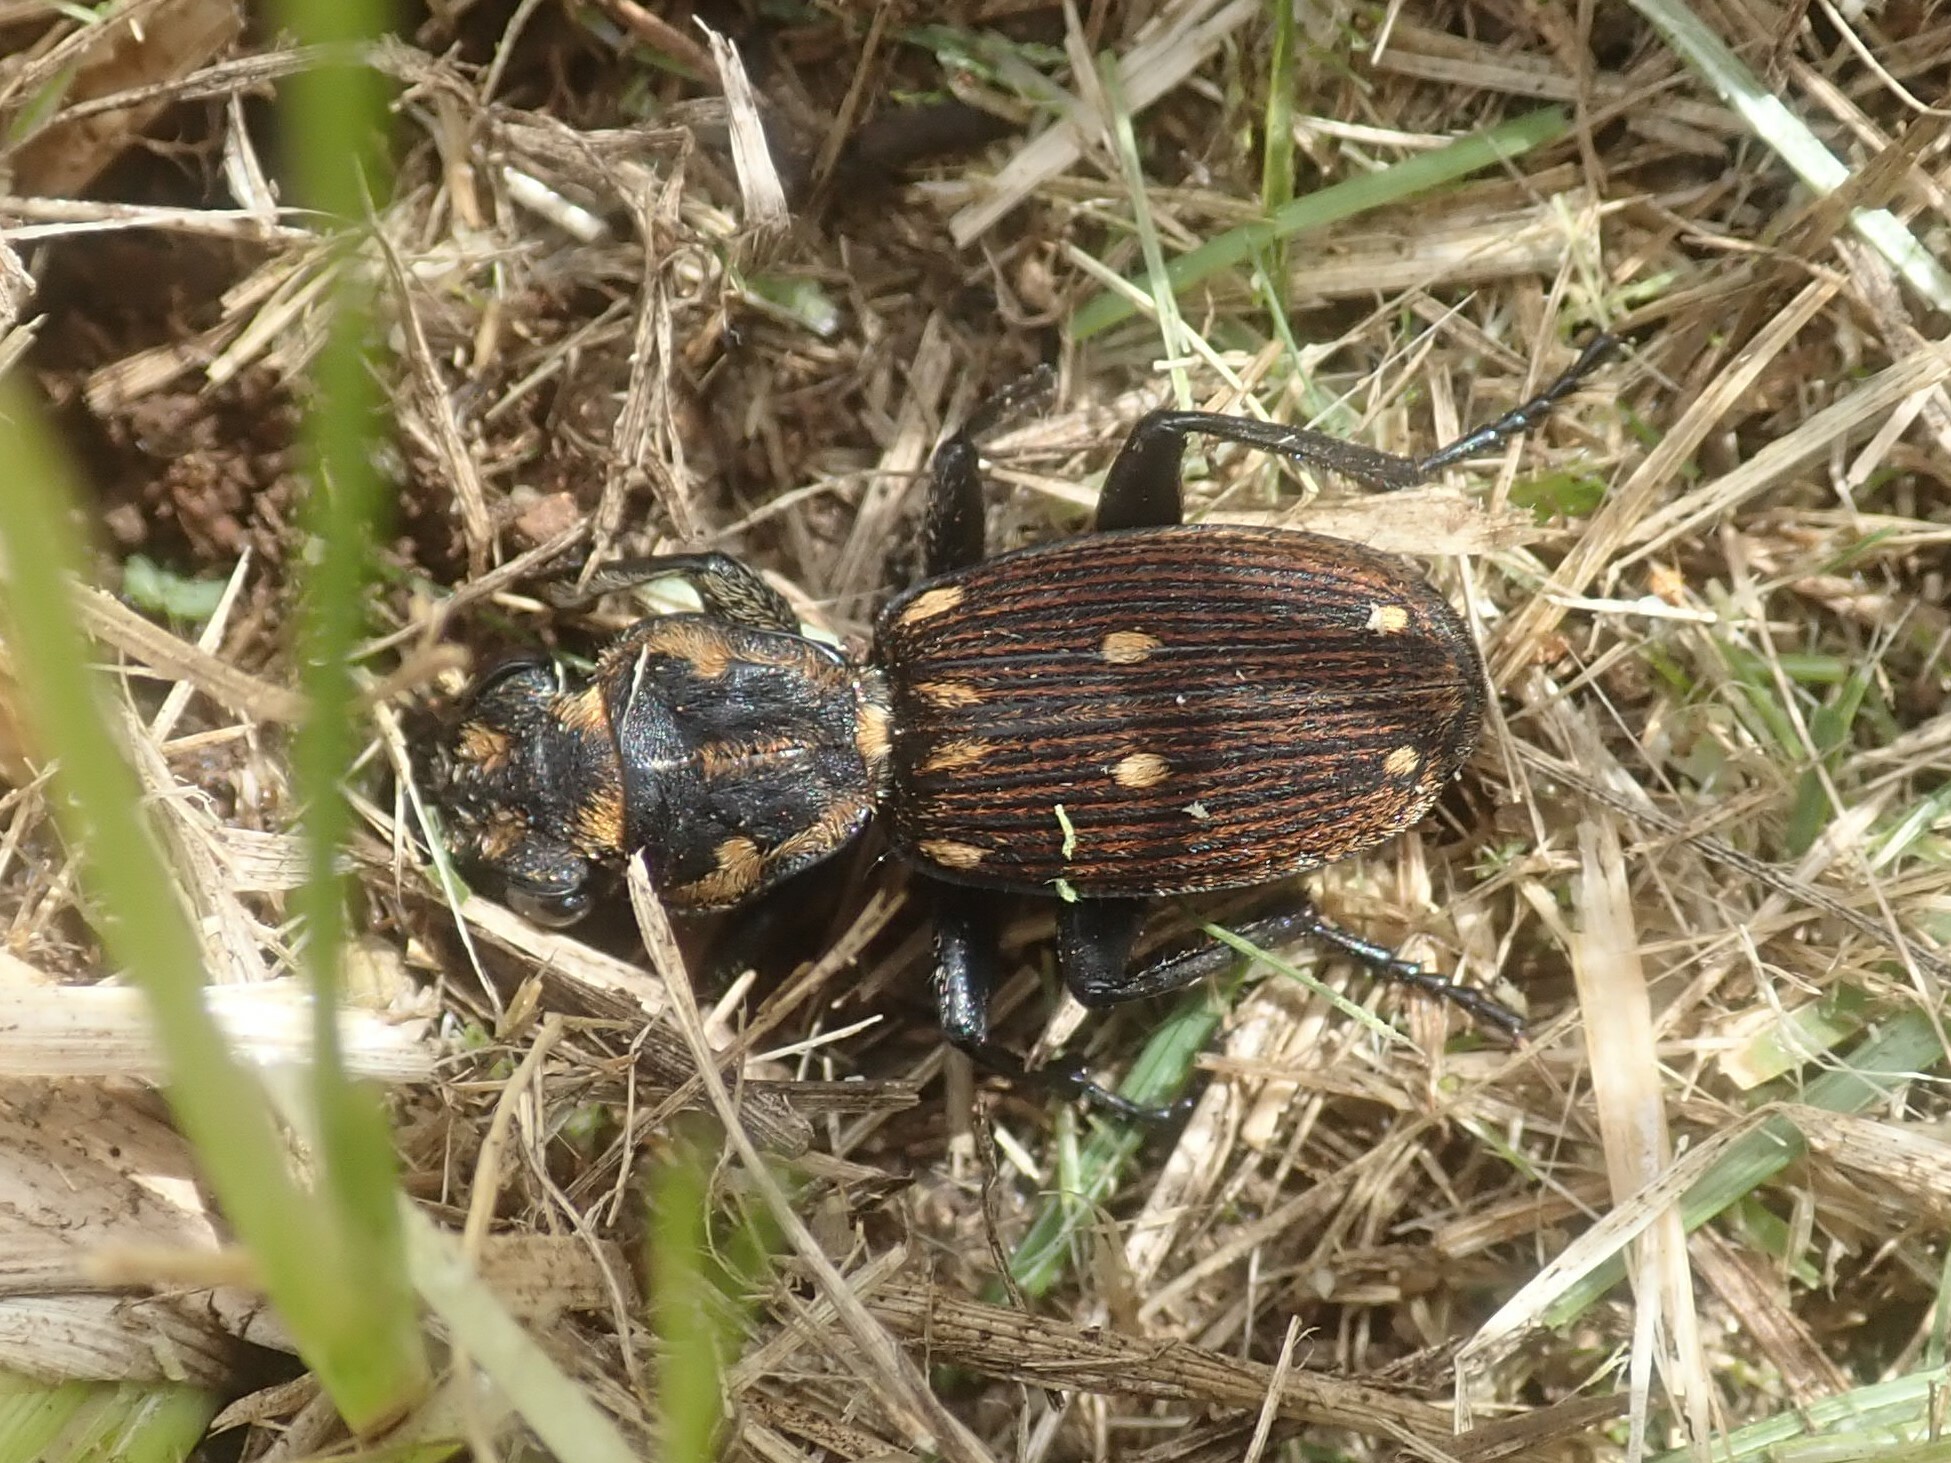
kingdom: Animalia
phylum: Arthropoda
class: Insecta
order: Coleoptera
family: Carabidae
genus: Cycloloba
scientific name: Cycloloba septemguttata
